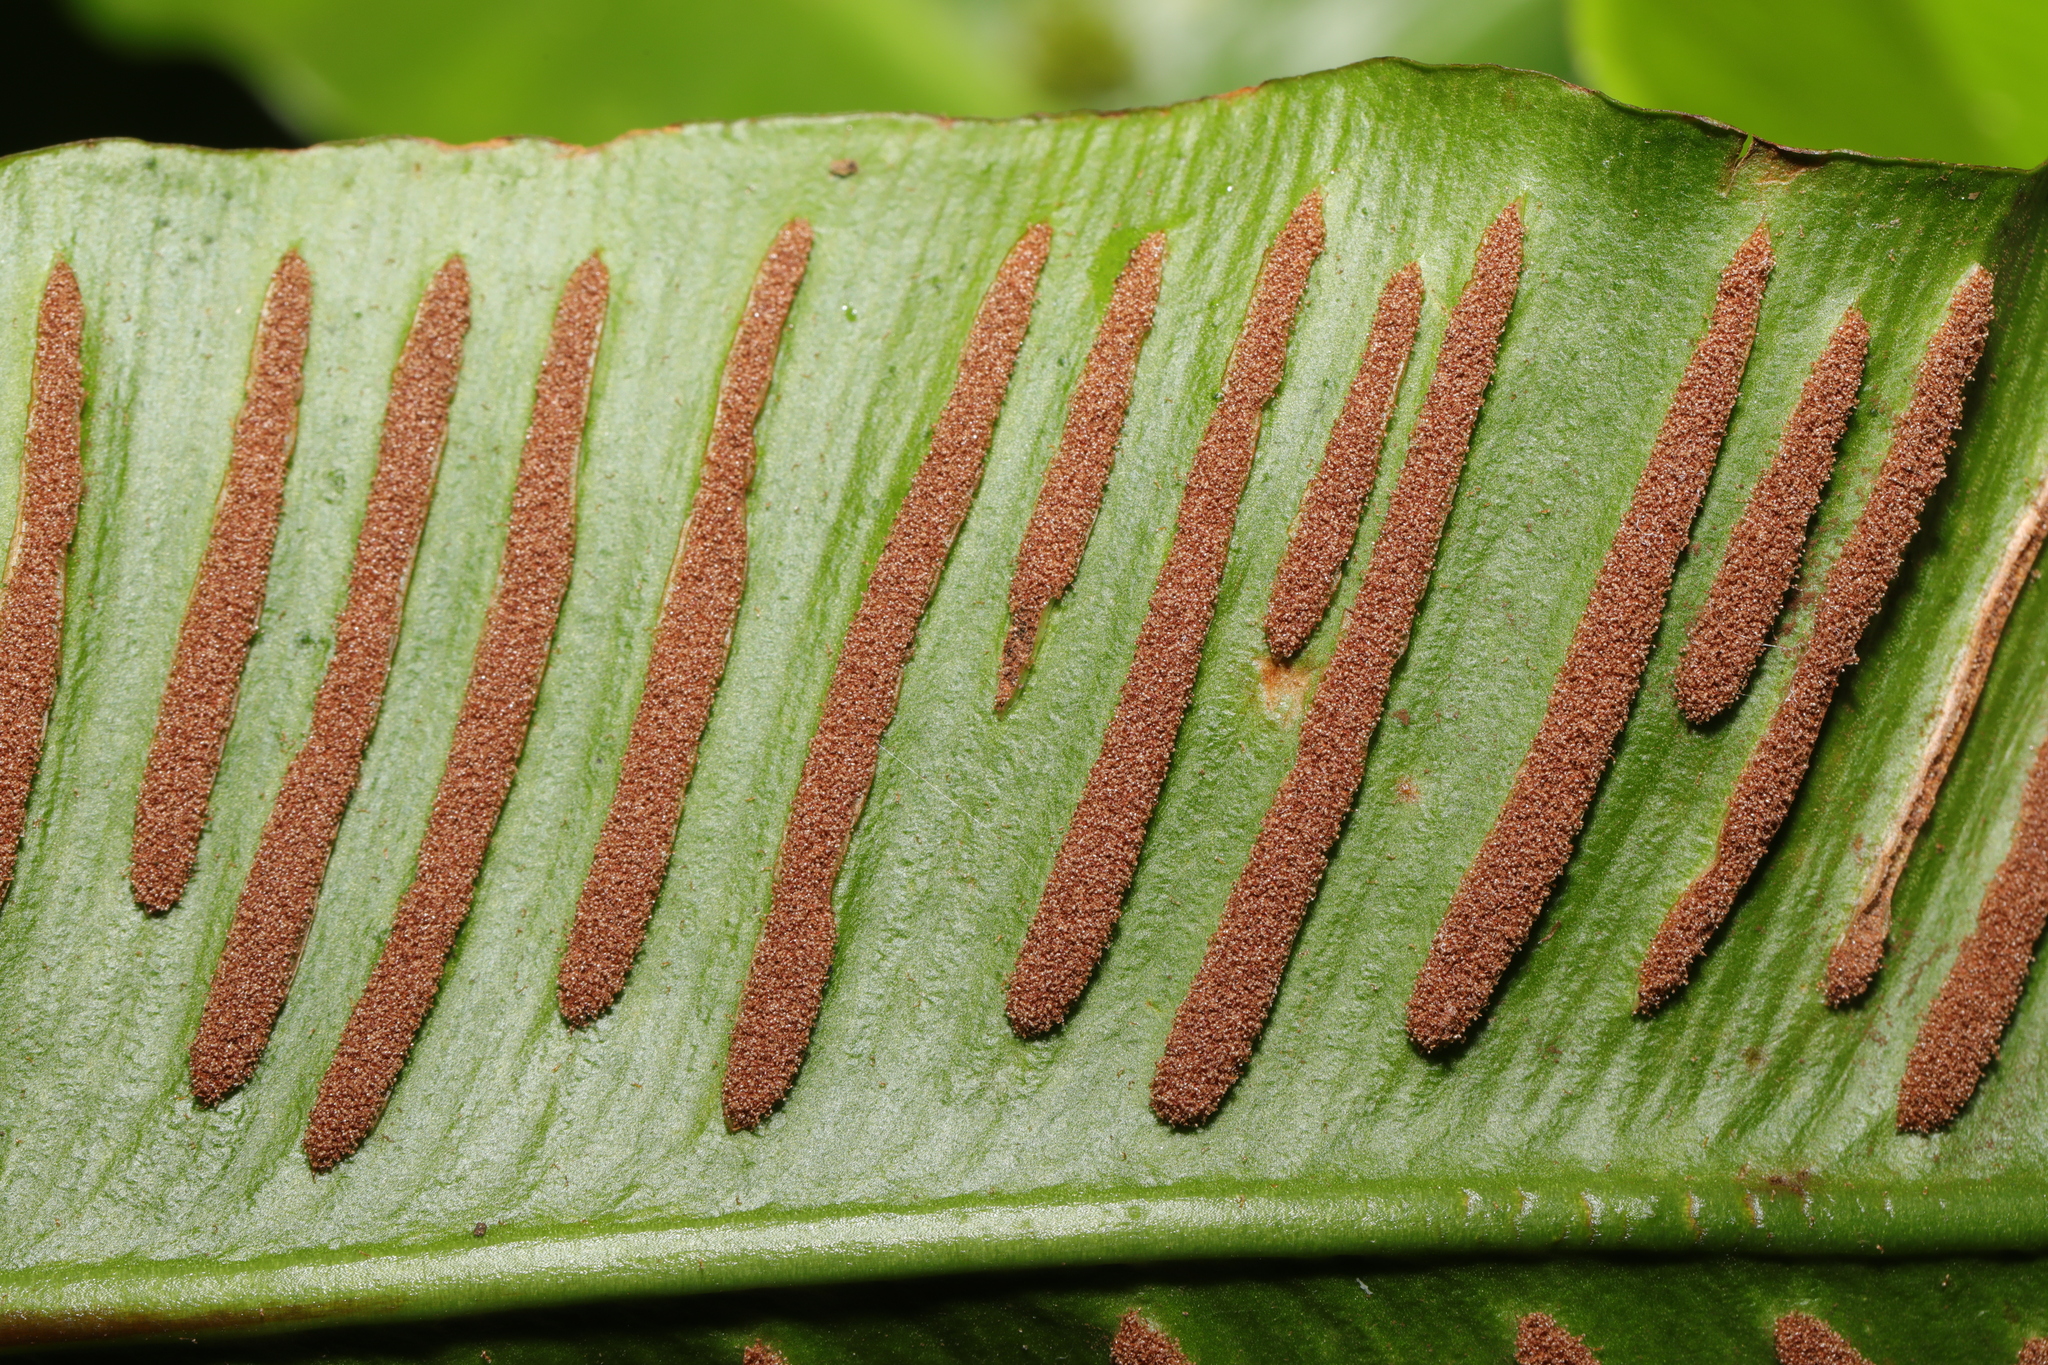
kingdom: Plantae
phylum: Tracheophyta
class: Polypodiopsida
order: Polypodiales
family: Aspleniaceae
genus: Asplenium
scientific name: Asplenium scolopendrium
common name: Hart's-tongue fern
